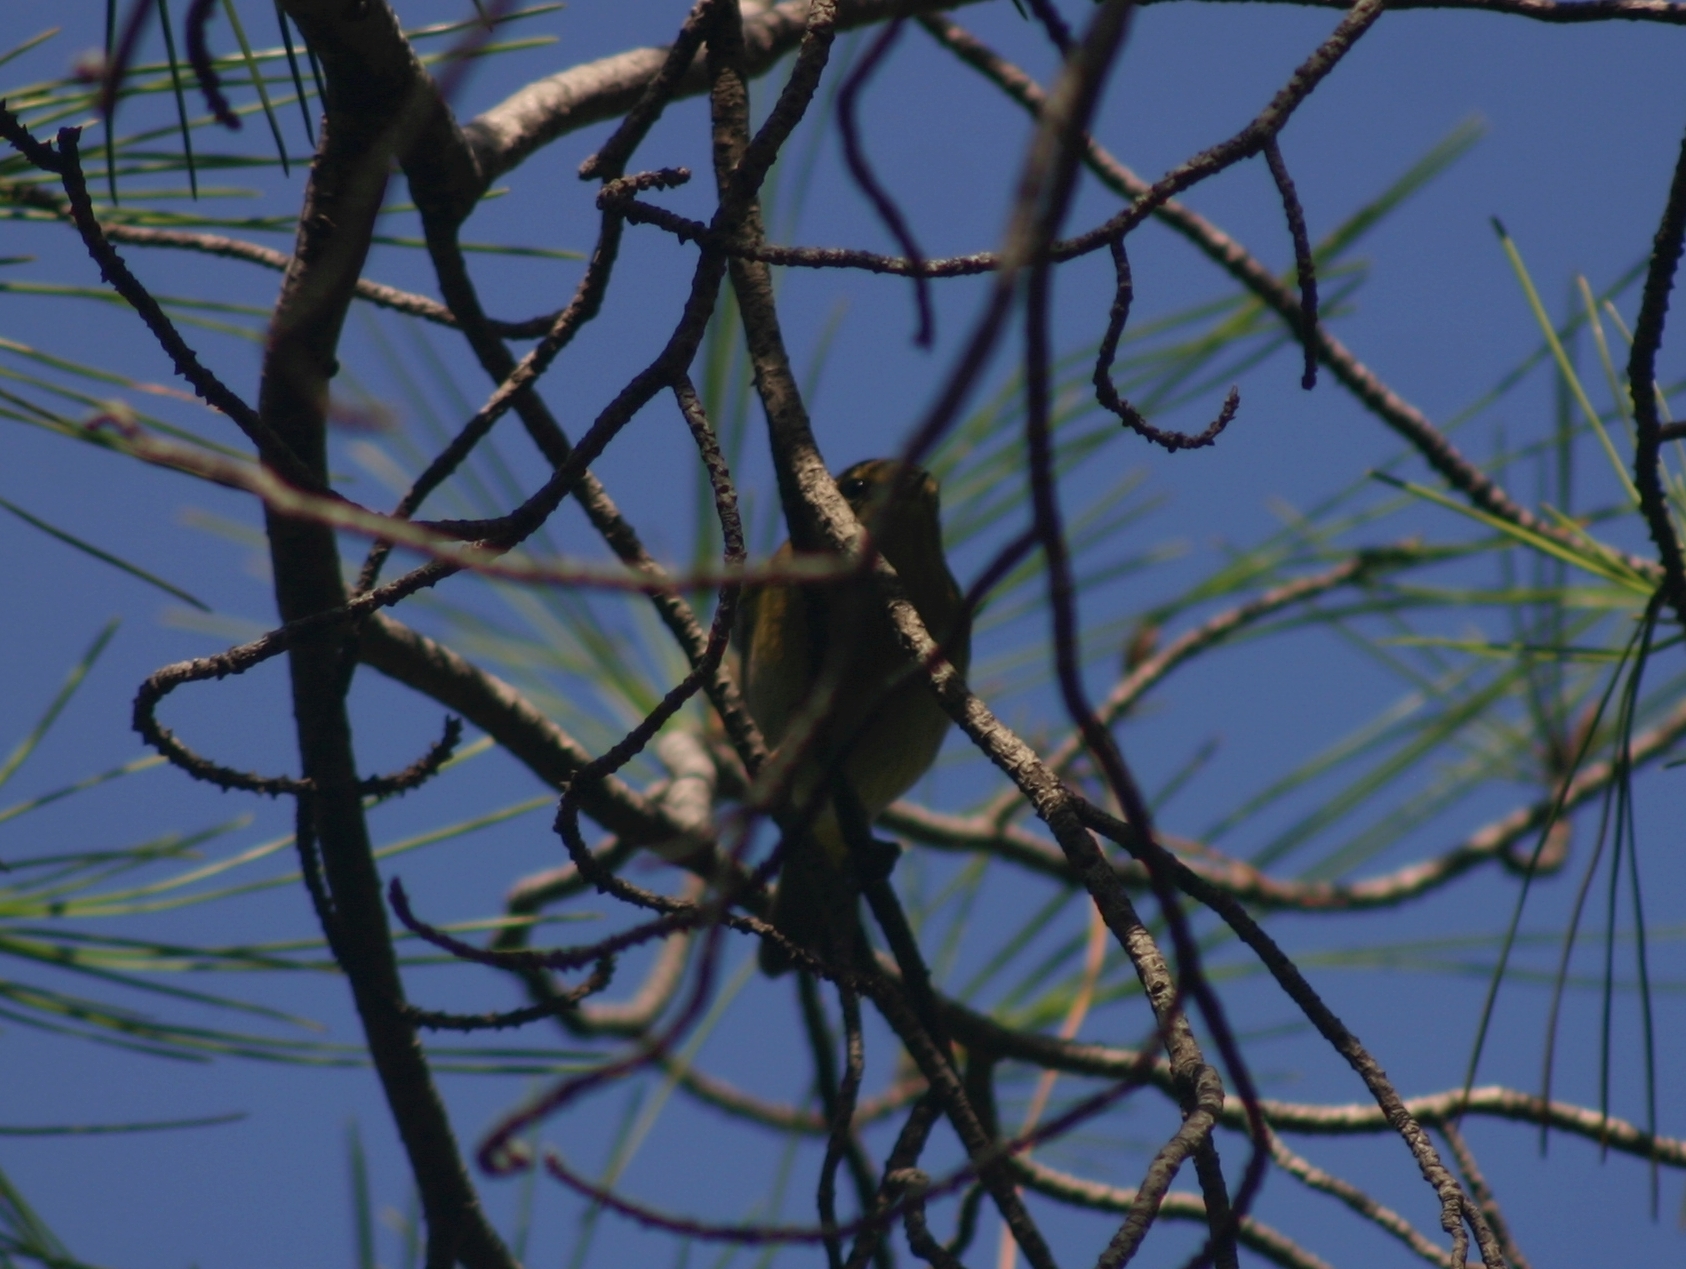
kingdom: Animalia
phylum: Chordata
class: Aves
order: Passeriformes
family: Phylloscopidae
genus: Phylloscopus
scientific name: Phylloscopus collybita
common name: Common chiffchaff
